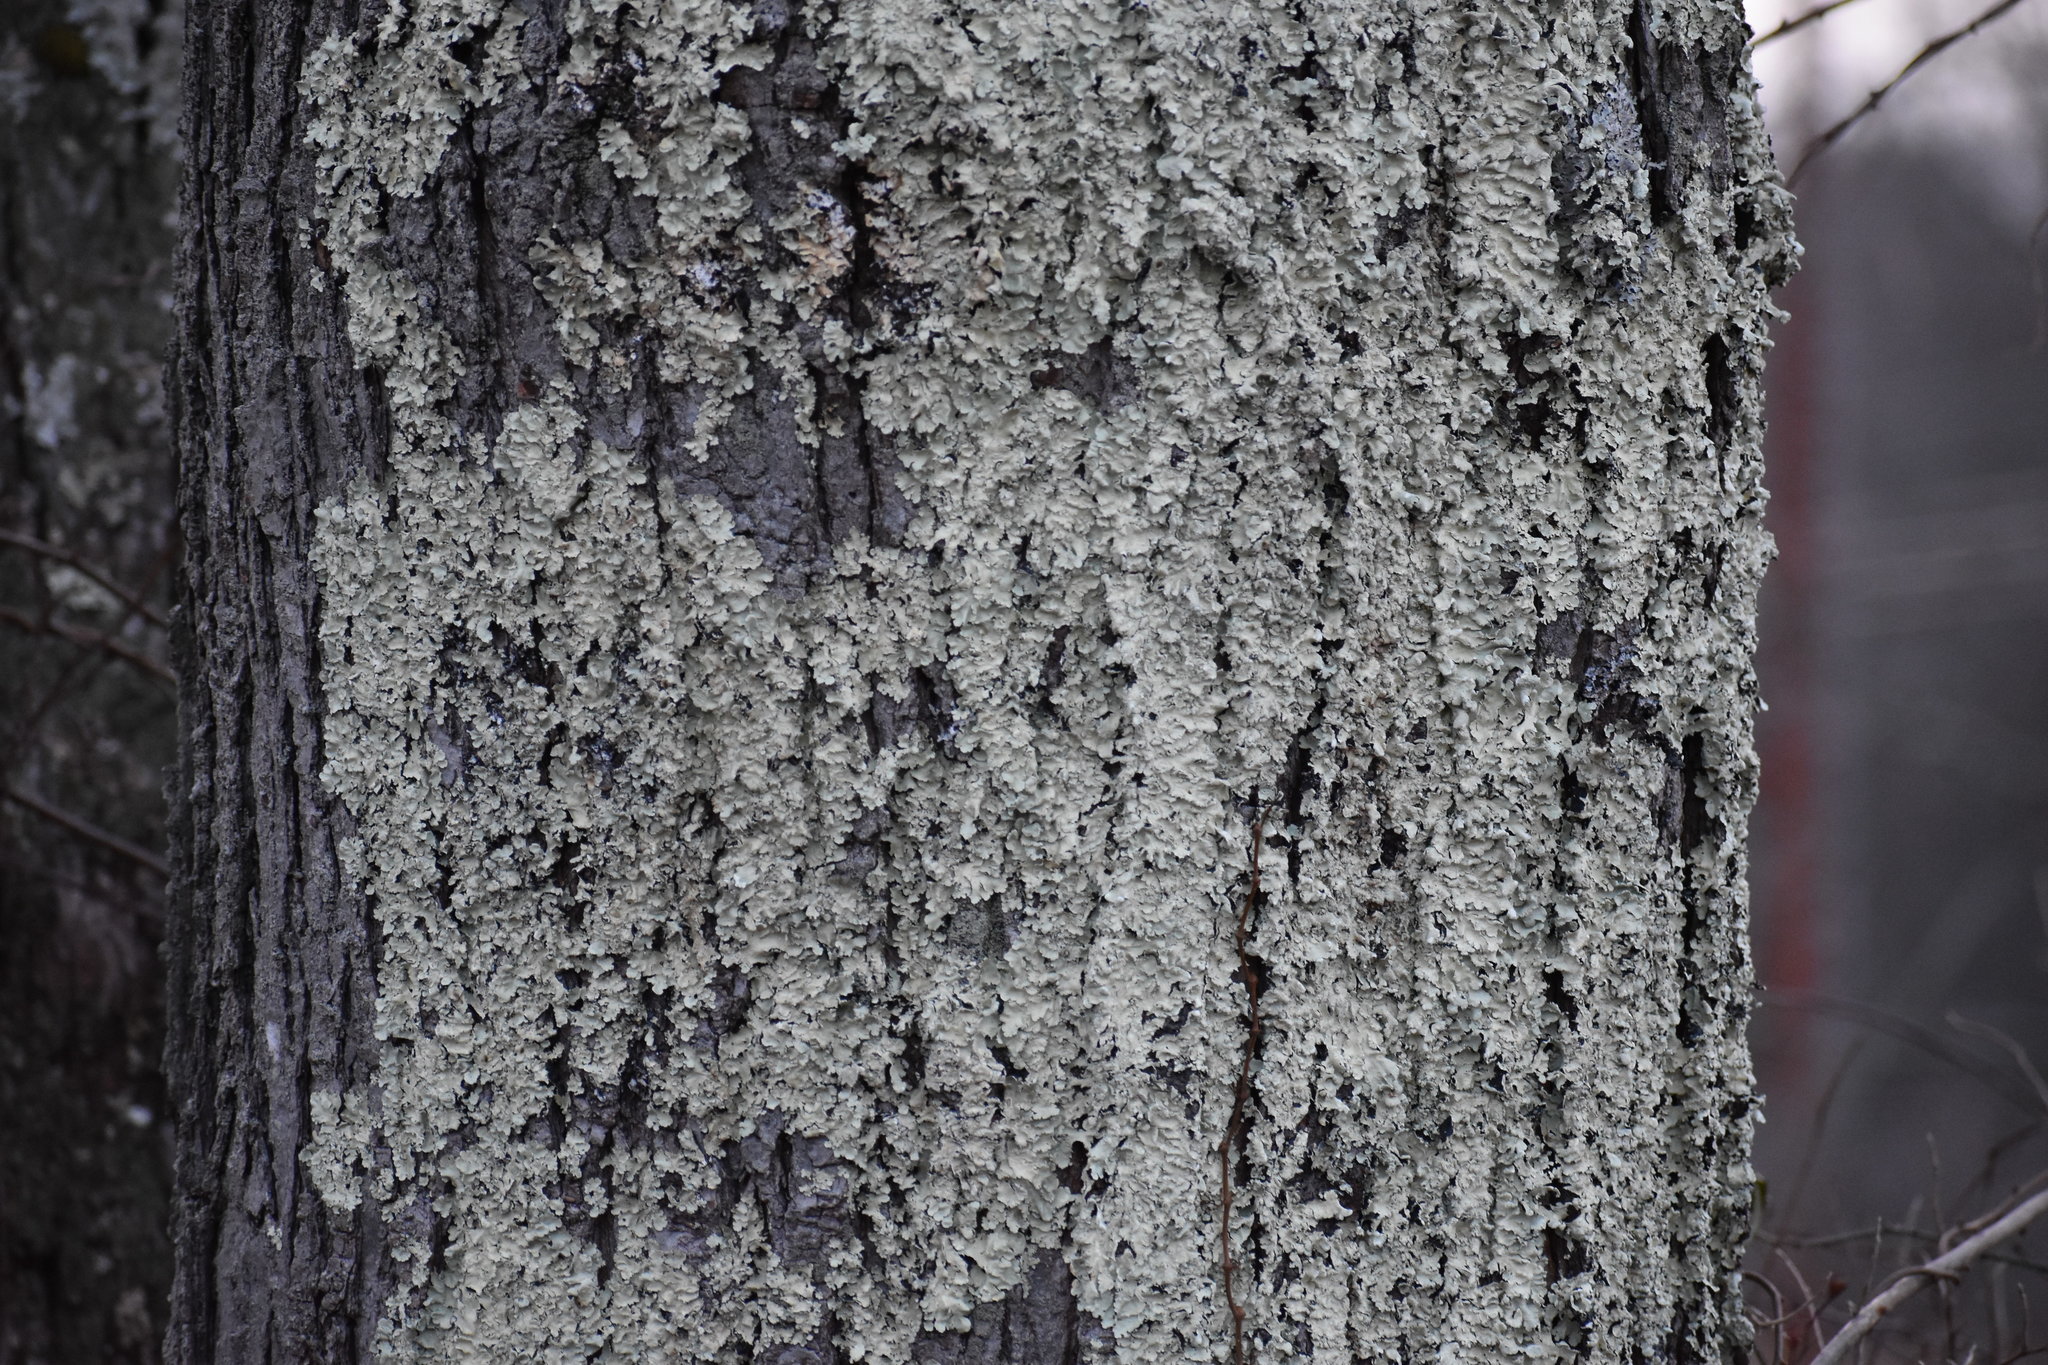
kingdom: Fungi
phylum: Ascomycota
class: Lecanoromycetes
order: Lecanorales
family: Parmeliaceae
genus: Flavoparmelia
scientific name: Flavoparmelia caperata
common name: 40-mile per hour lichen
